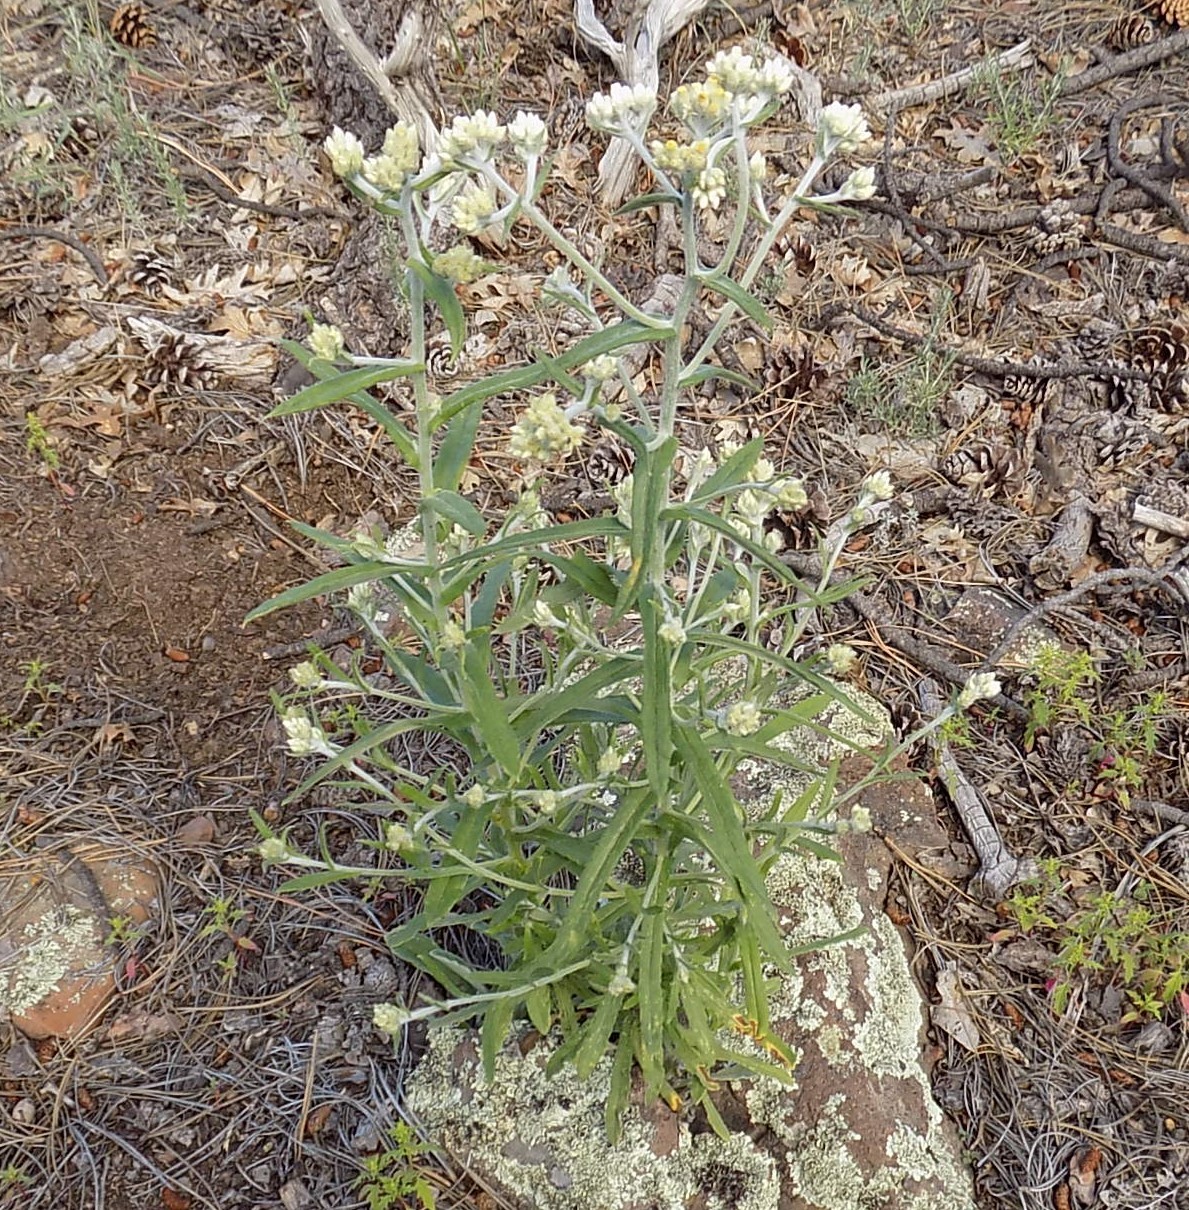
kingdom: Plantae
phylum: Tracheophyta
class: Magnoliopsida
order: Asterales
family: Asteraceae
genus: Pseudognaphalium
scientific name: Pseudognaphalium macounii
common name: Clammy cudweed
